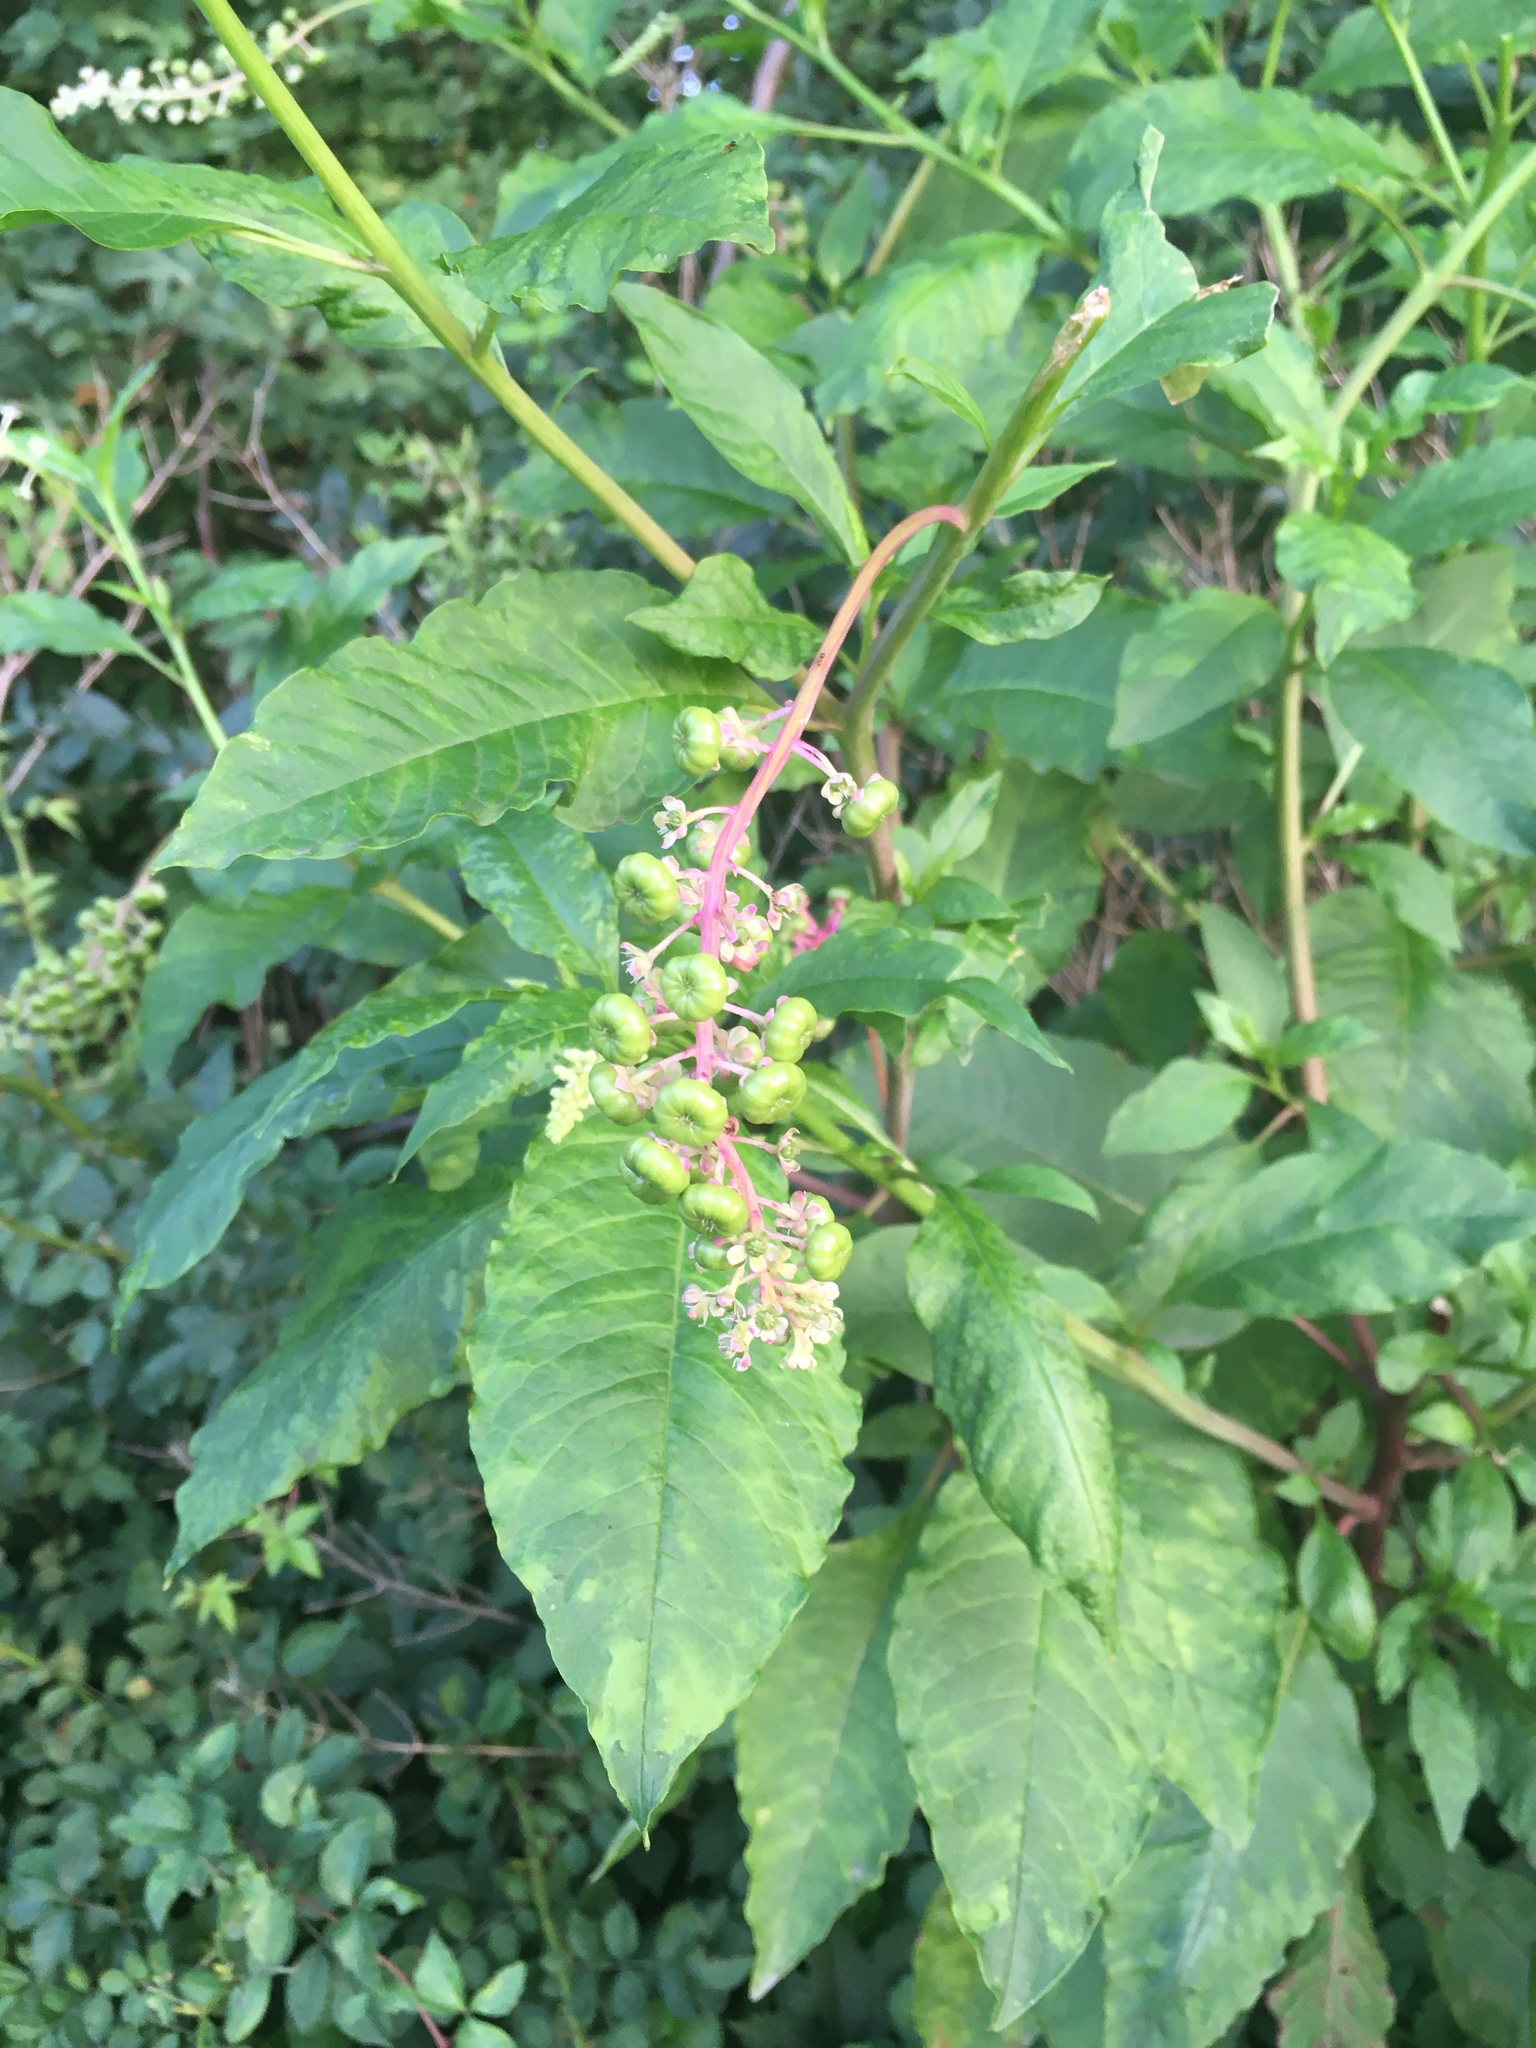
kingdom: Plantae
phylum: Tracheophyta
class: Magnoliopsida
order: Caryophyllales
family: Phytolaccaceae
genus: Phytolacca
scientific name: Phytolacca americana
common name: American pokeweed
